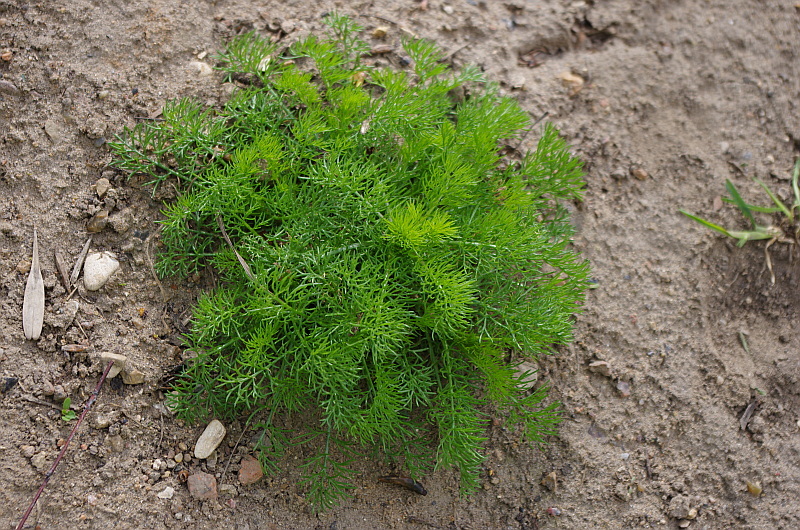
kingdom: Plantae
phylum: Tracheophyta
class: Magnoliopsida
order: Asterales
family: Asteraceae
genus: Tripleurospermum
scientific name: Tripleurospermum inodorum
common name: Scentless mayweed
